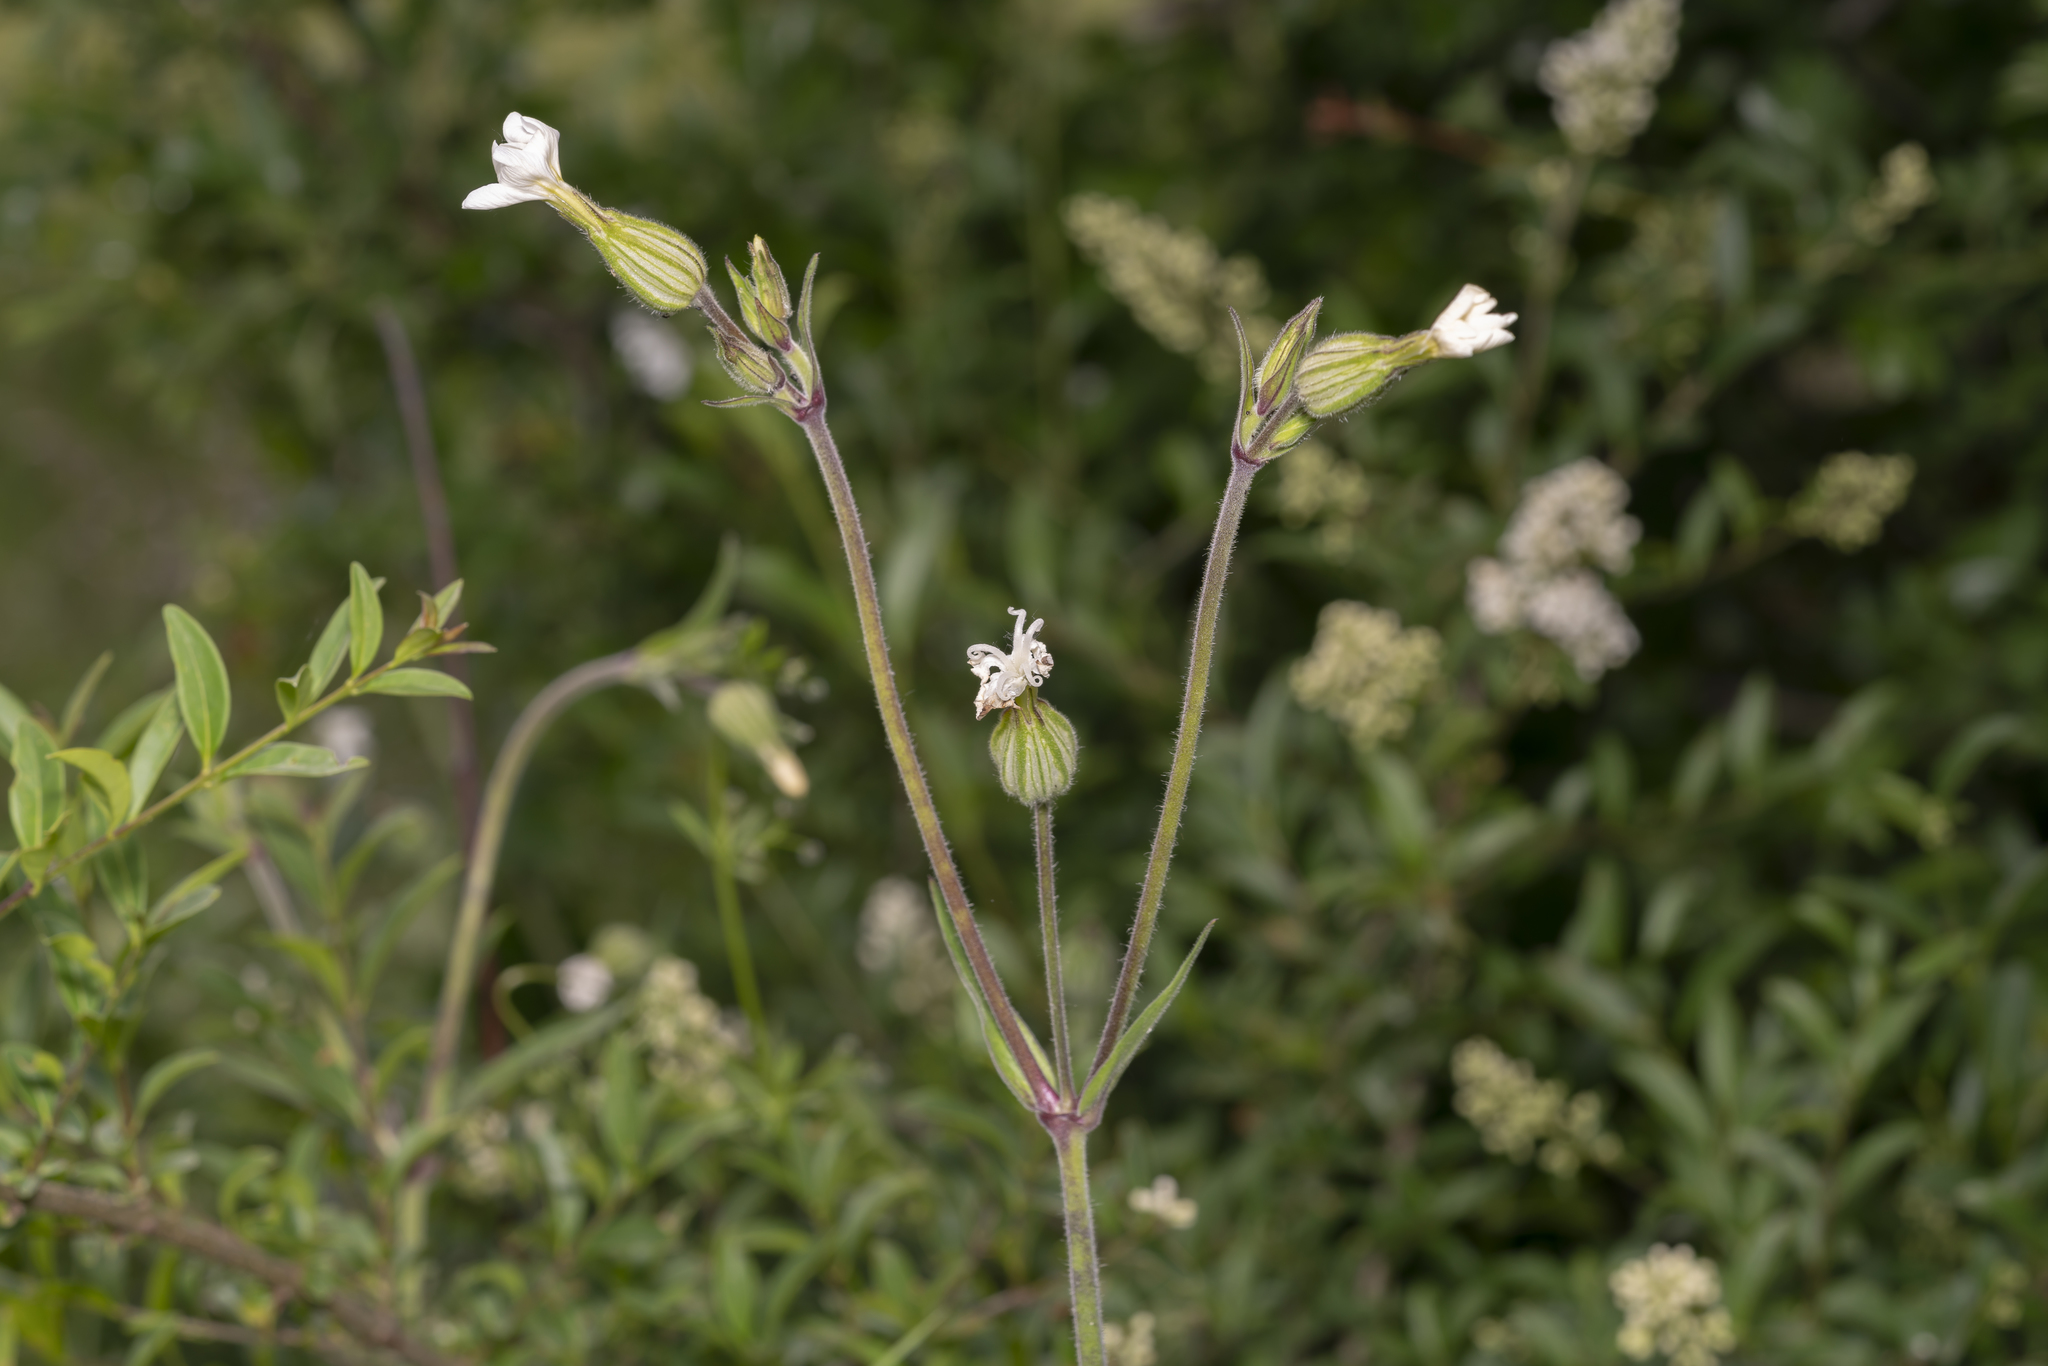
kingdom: Plantae
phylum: Tracheophyta
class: Magnoliopsida
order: Caryophyllales
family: Caryophyllaceae
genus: Silene
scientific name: Silene latifolia
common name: White campion
